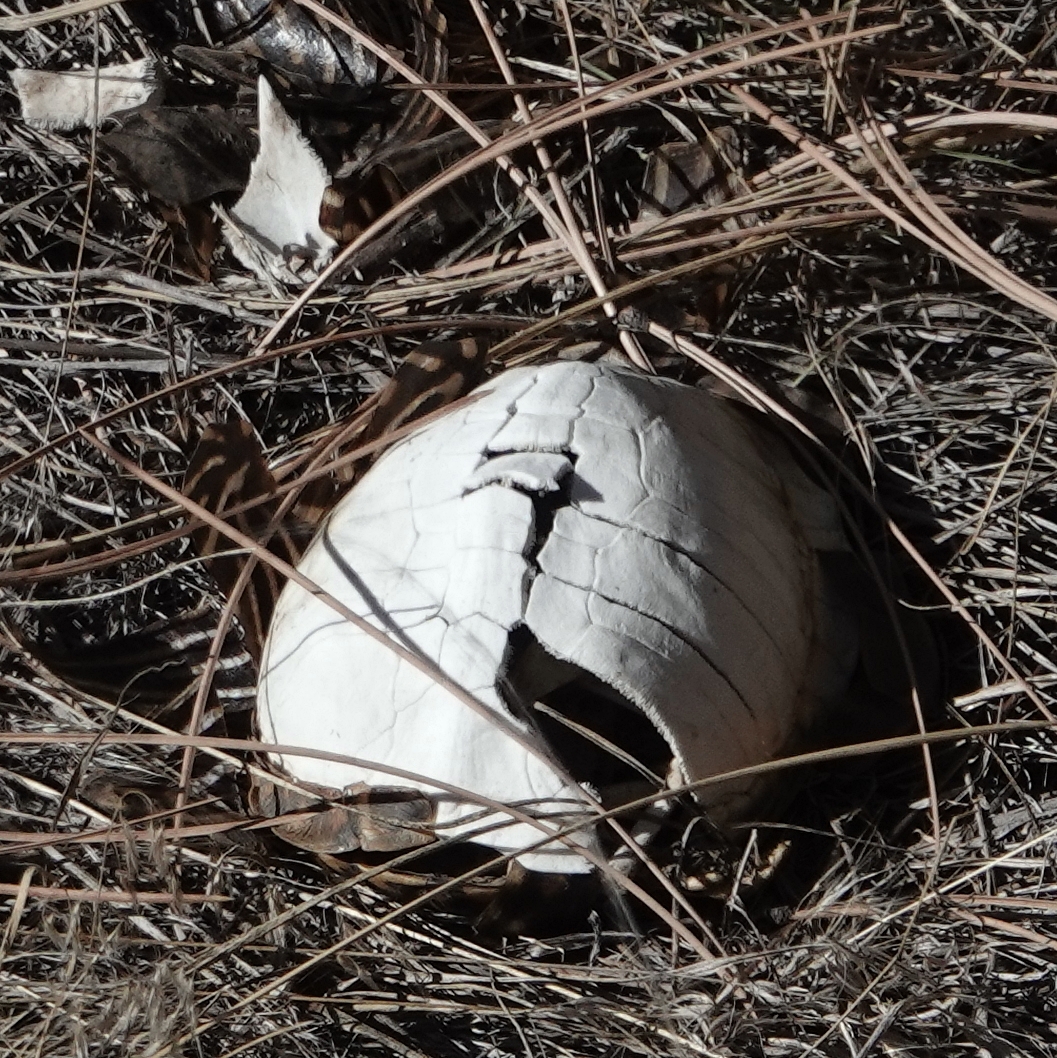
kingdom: Animalia
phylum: Chordata
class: Testudines
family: Emydidae
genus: Terrapene
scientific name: Terrapene ornata
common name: Western box turtle
